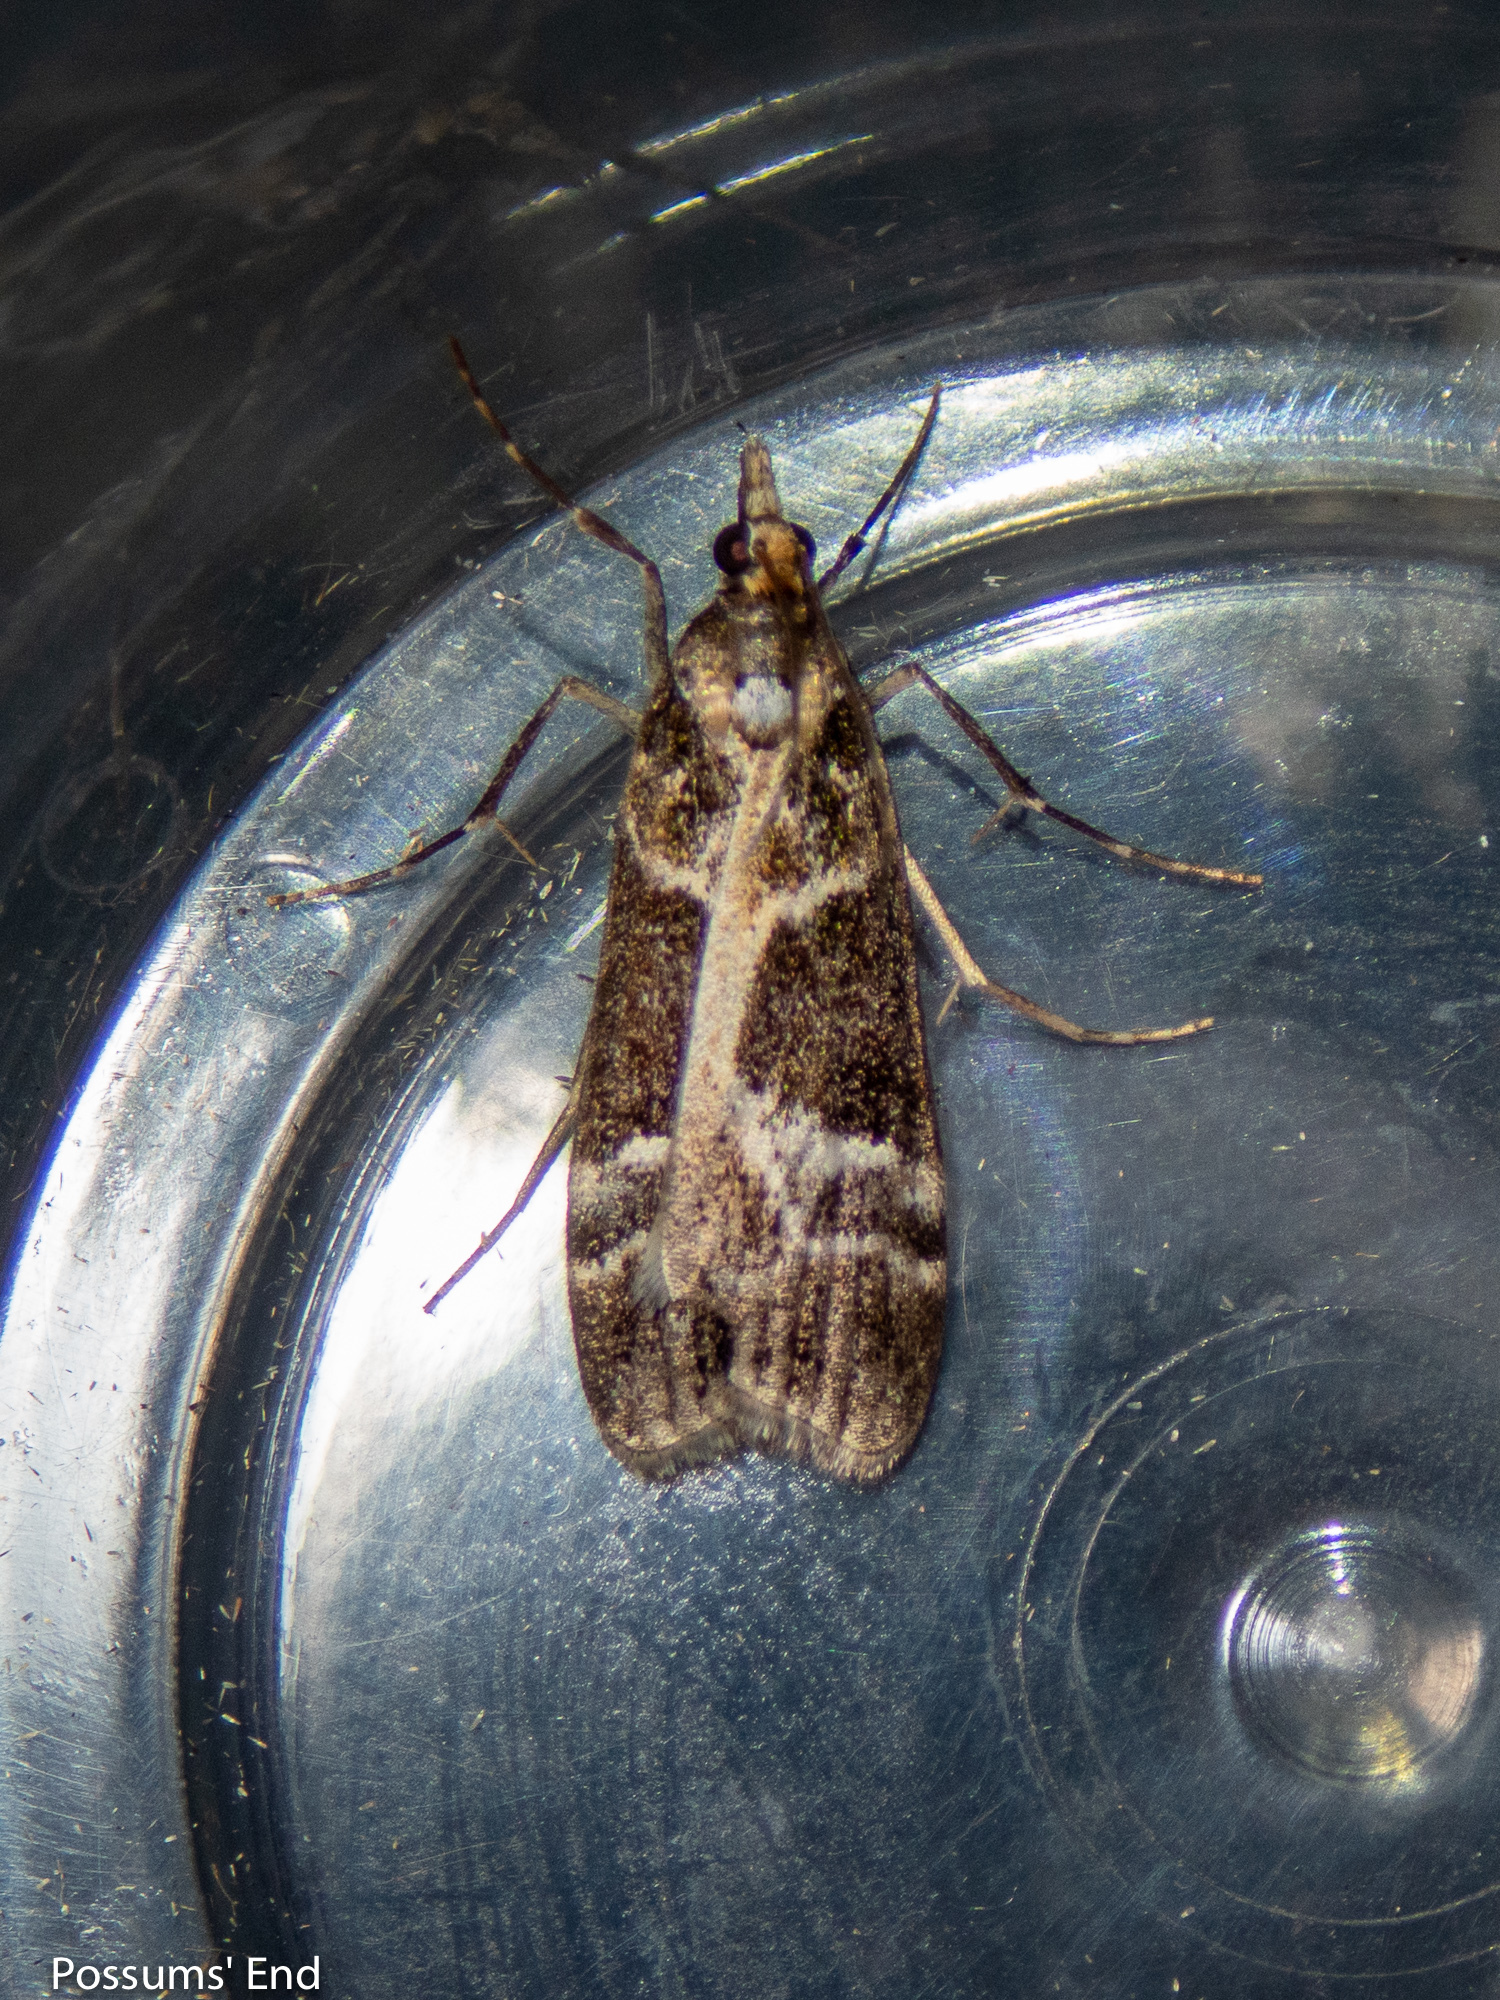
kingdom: Animalia
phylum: Arthropoda
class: Insecta
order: Lepidoptera
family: Crambidae
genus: Eudonia
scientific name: Eudonia melanaegis
